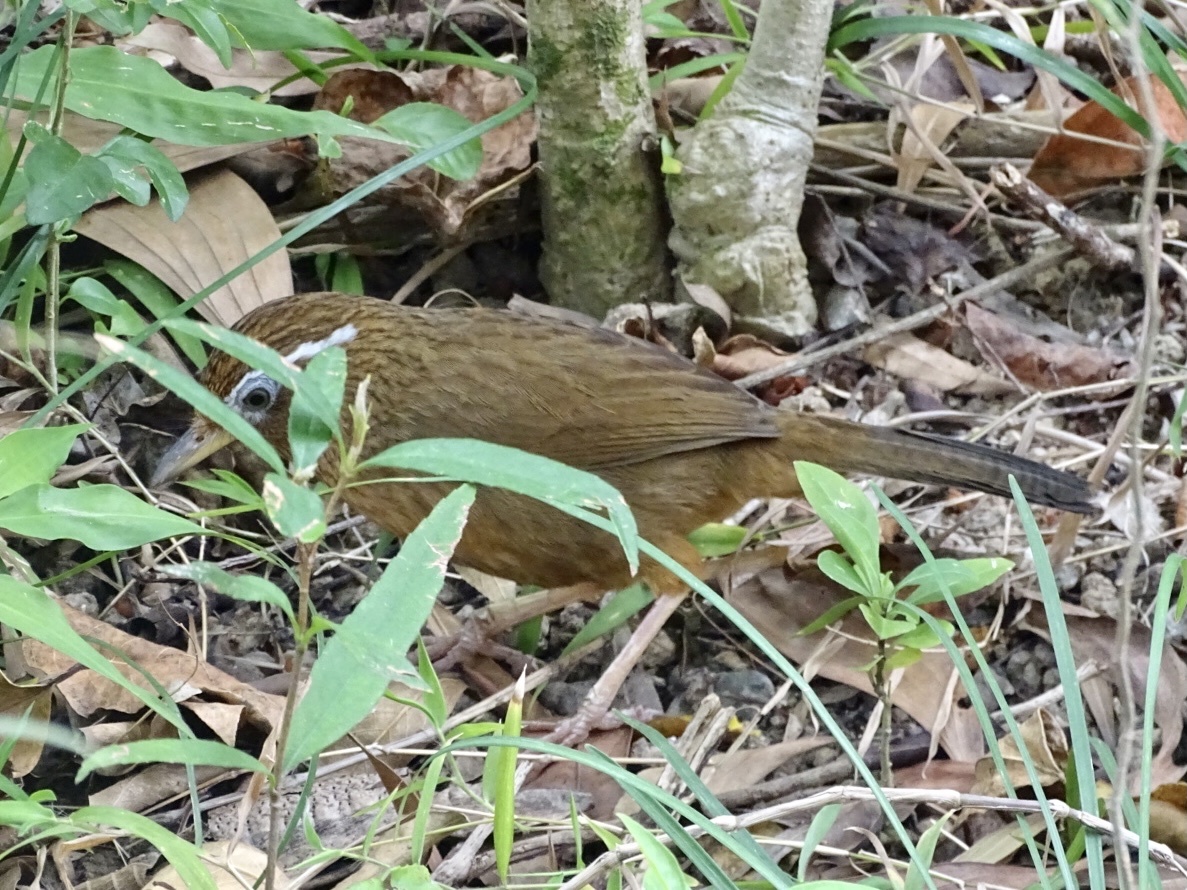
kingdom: Animalia
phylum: Chordata
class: Aves
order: Passeriformes
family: Leiothrichidae
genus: Garrulax
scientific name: Garrulax canorus
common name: Chinese hwamei
